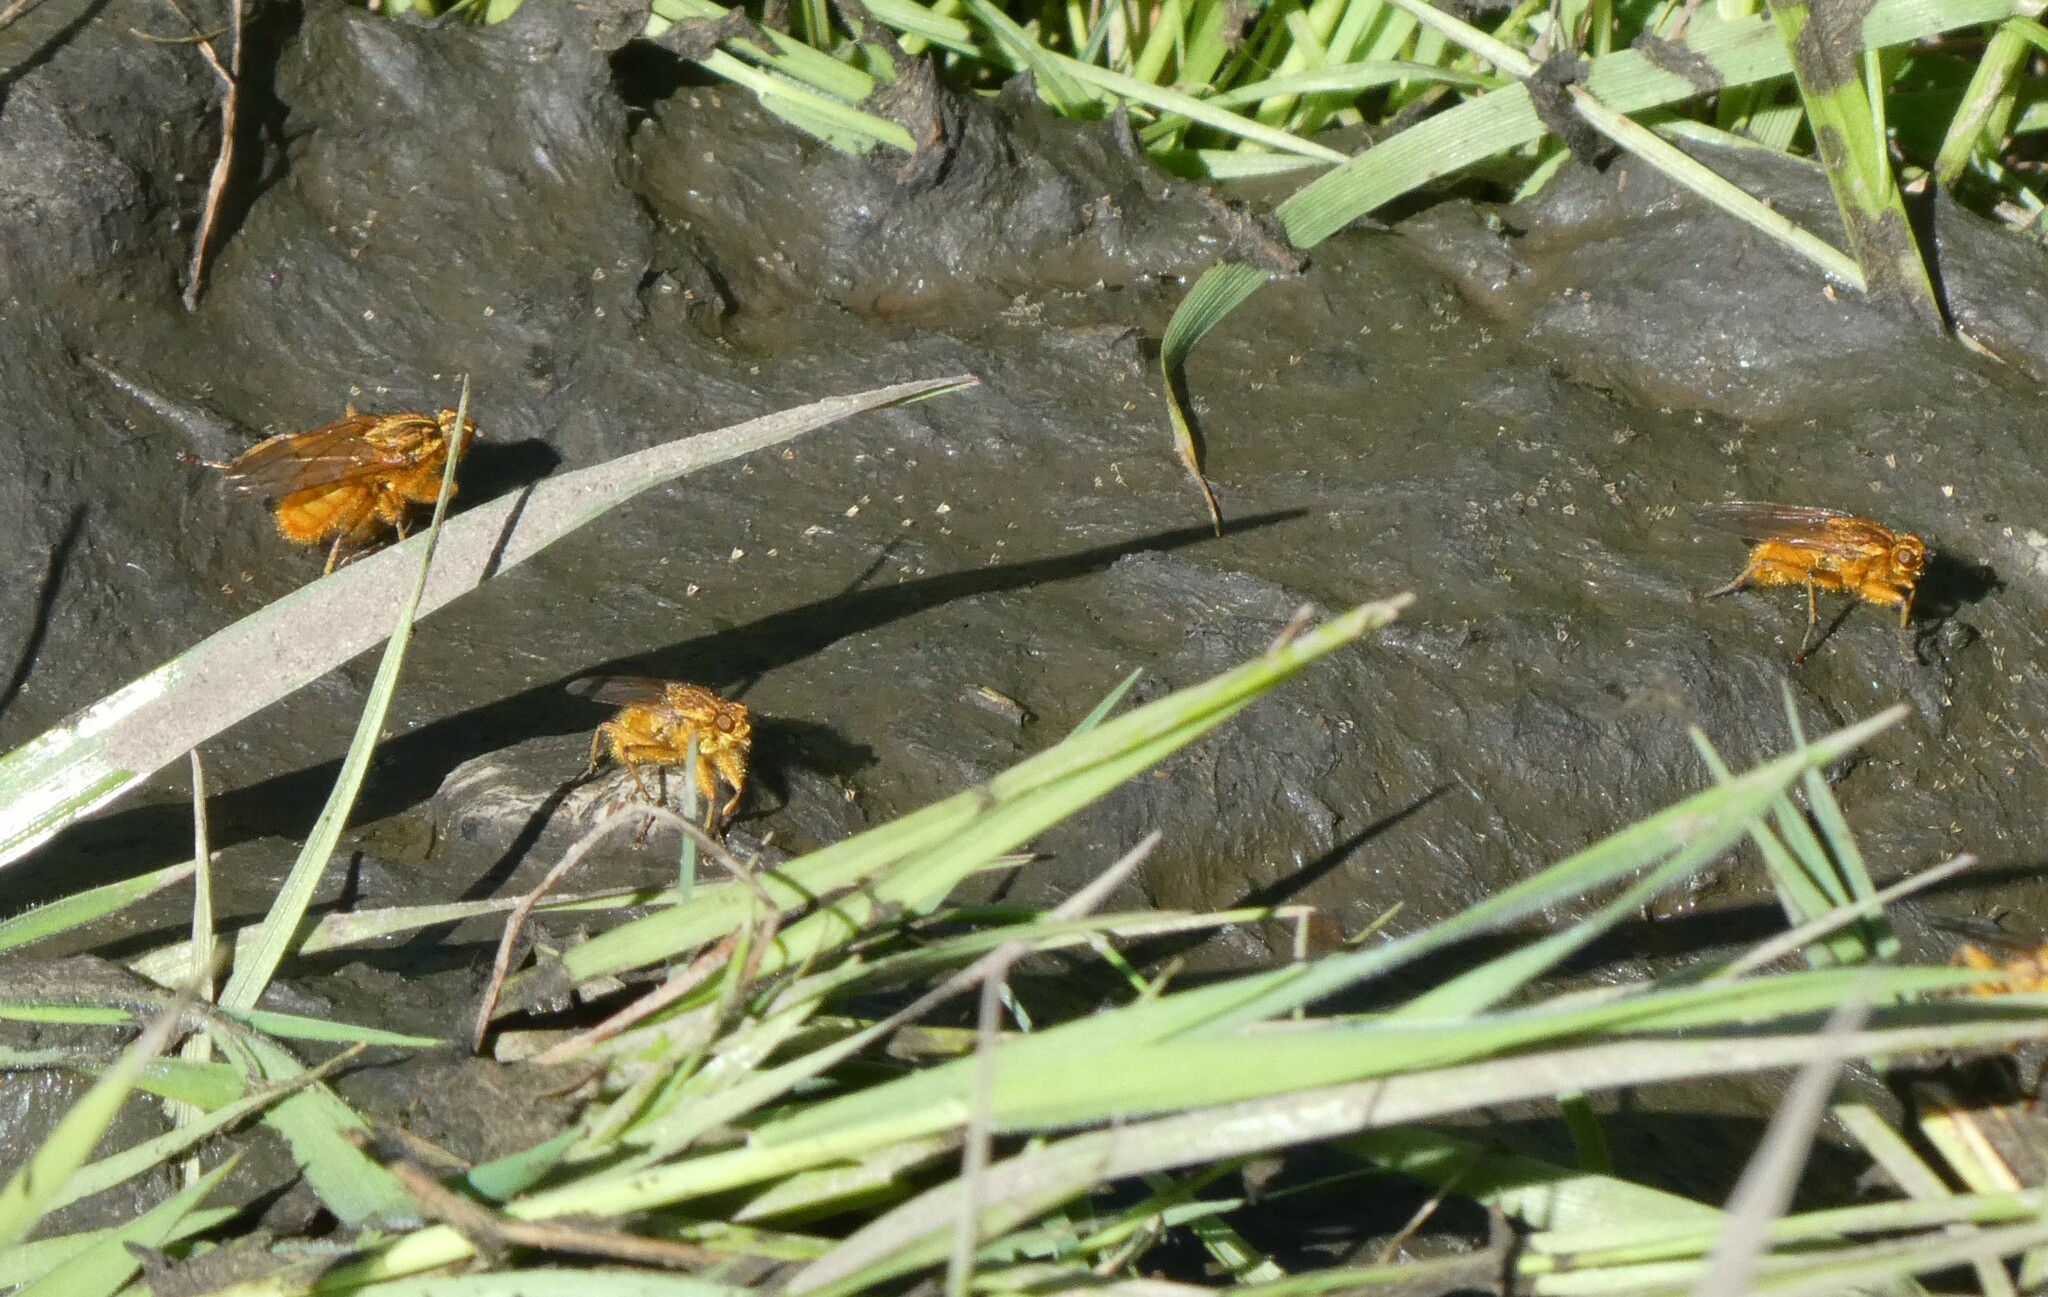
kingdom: Animalia
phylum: Arthropoda
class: Insecta
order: Diptera
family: Scathophagidae
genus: Scathophaga
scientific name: Scathophaga stercoraria
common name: Yellow dung fly
